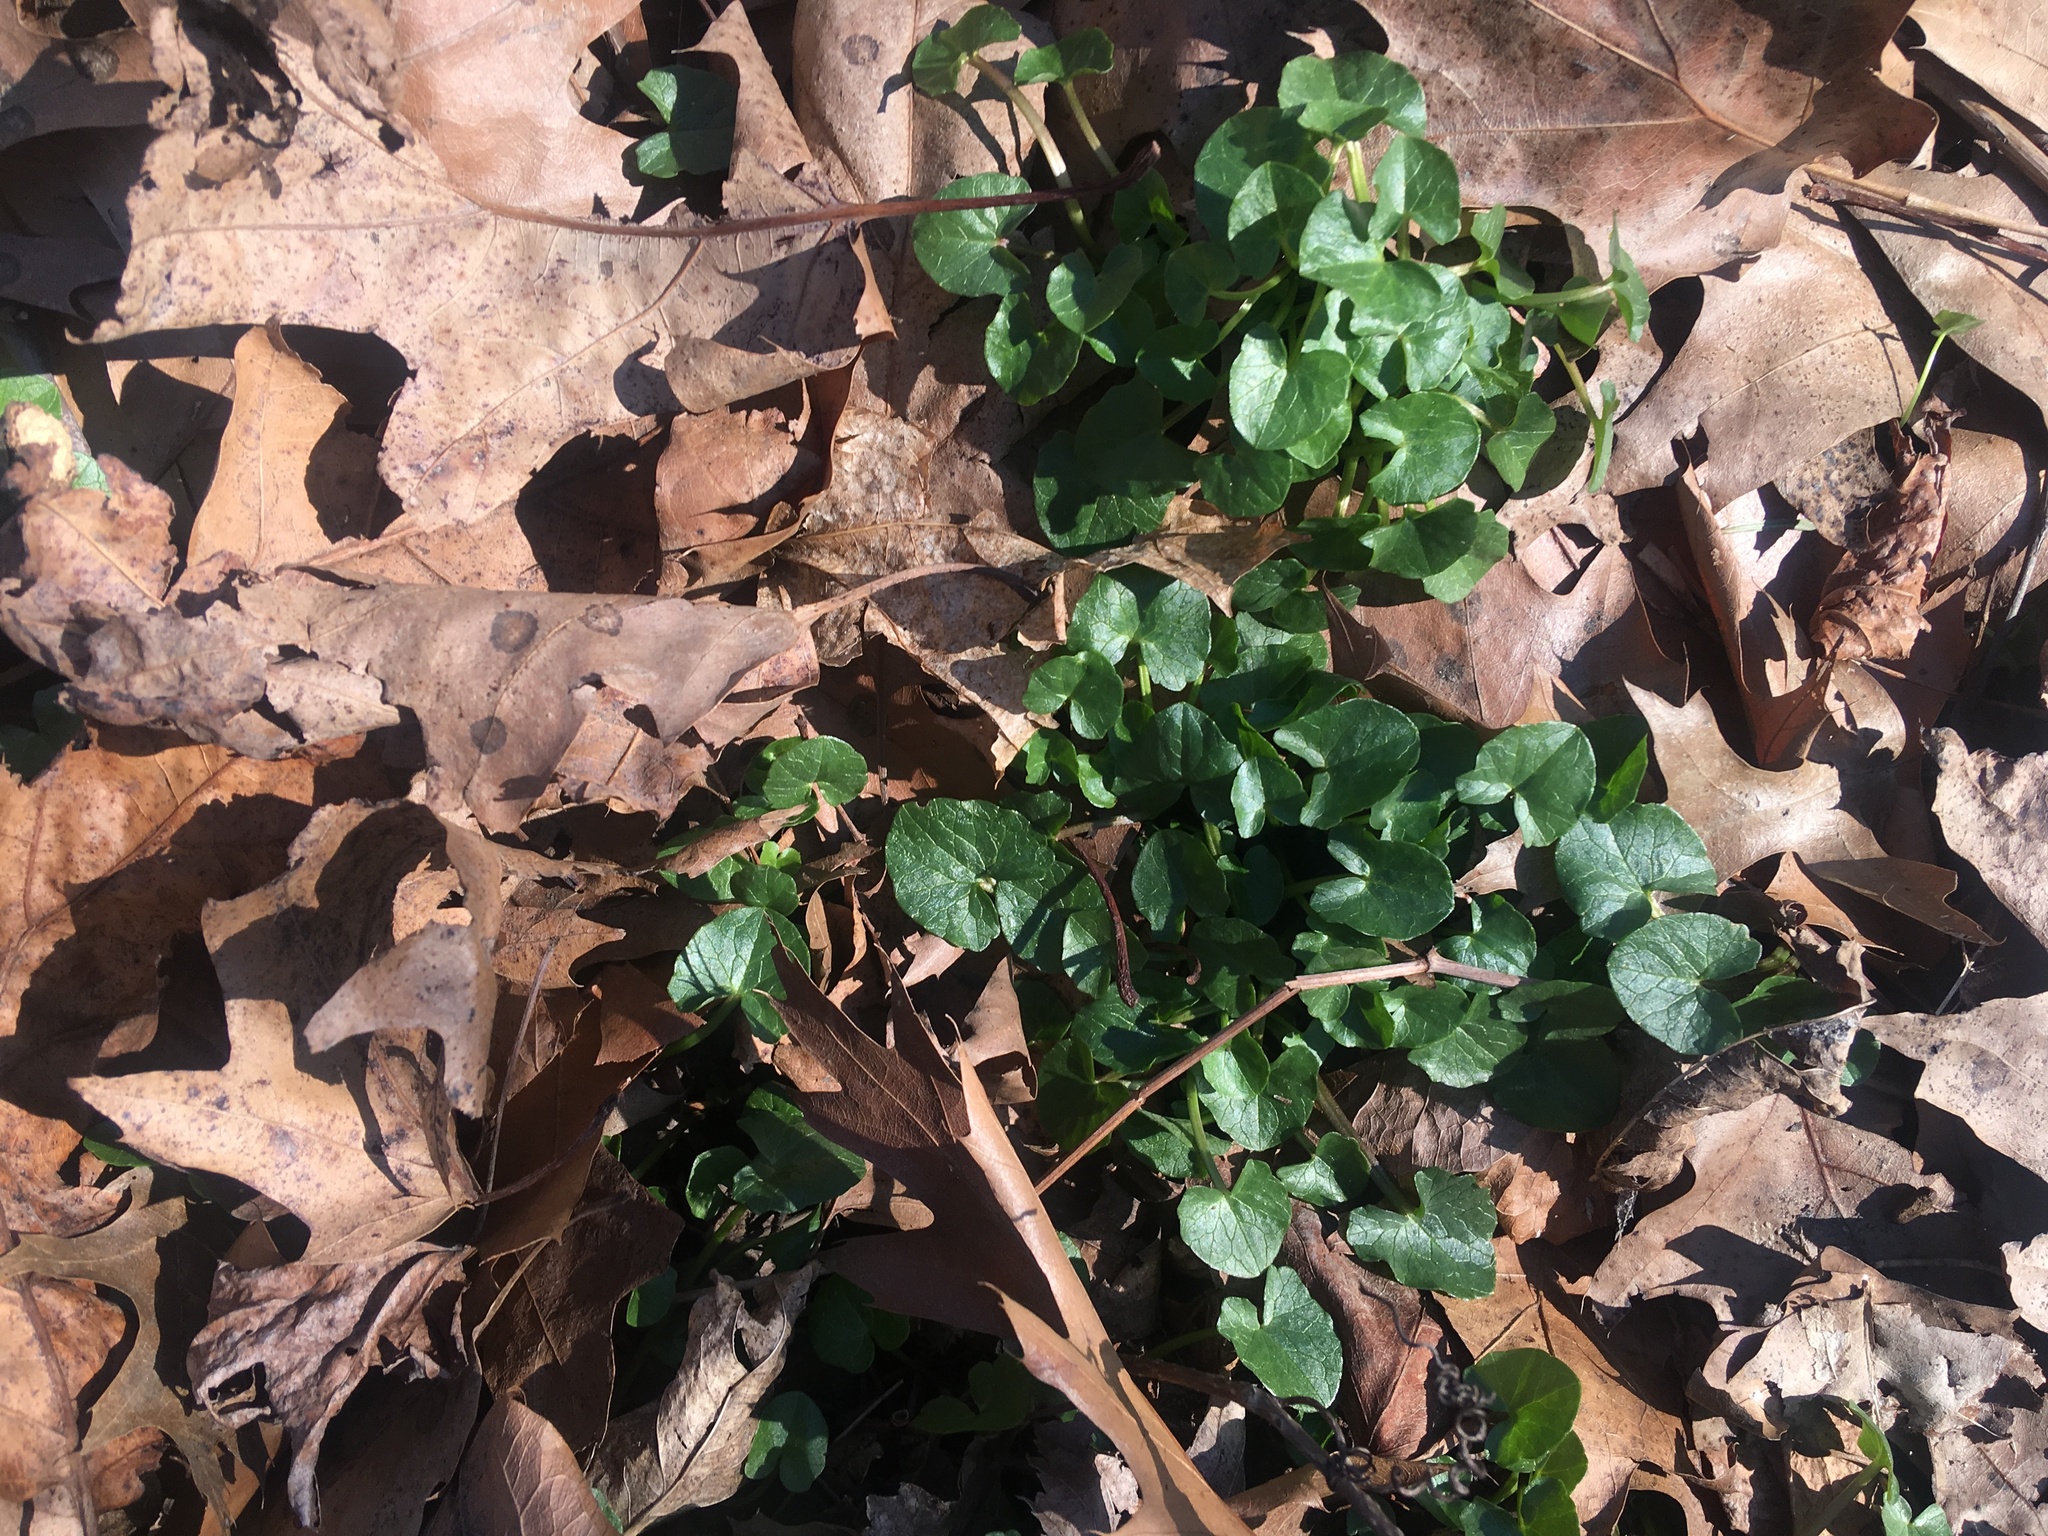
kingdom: Plantae
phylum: Tracheophyta
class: Magnoliopsida
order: Ranunculales
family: Ranunculaceae
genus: Ficaria
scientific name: Ficaria verna
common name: Lesser celandine
